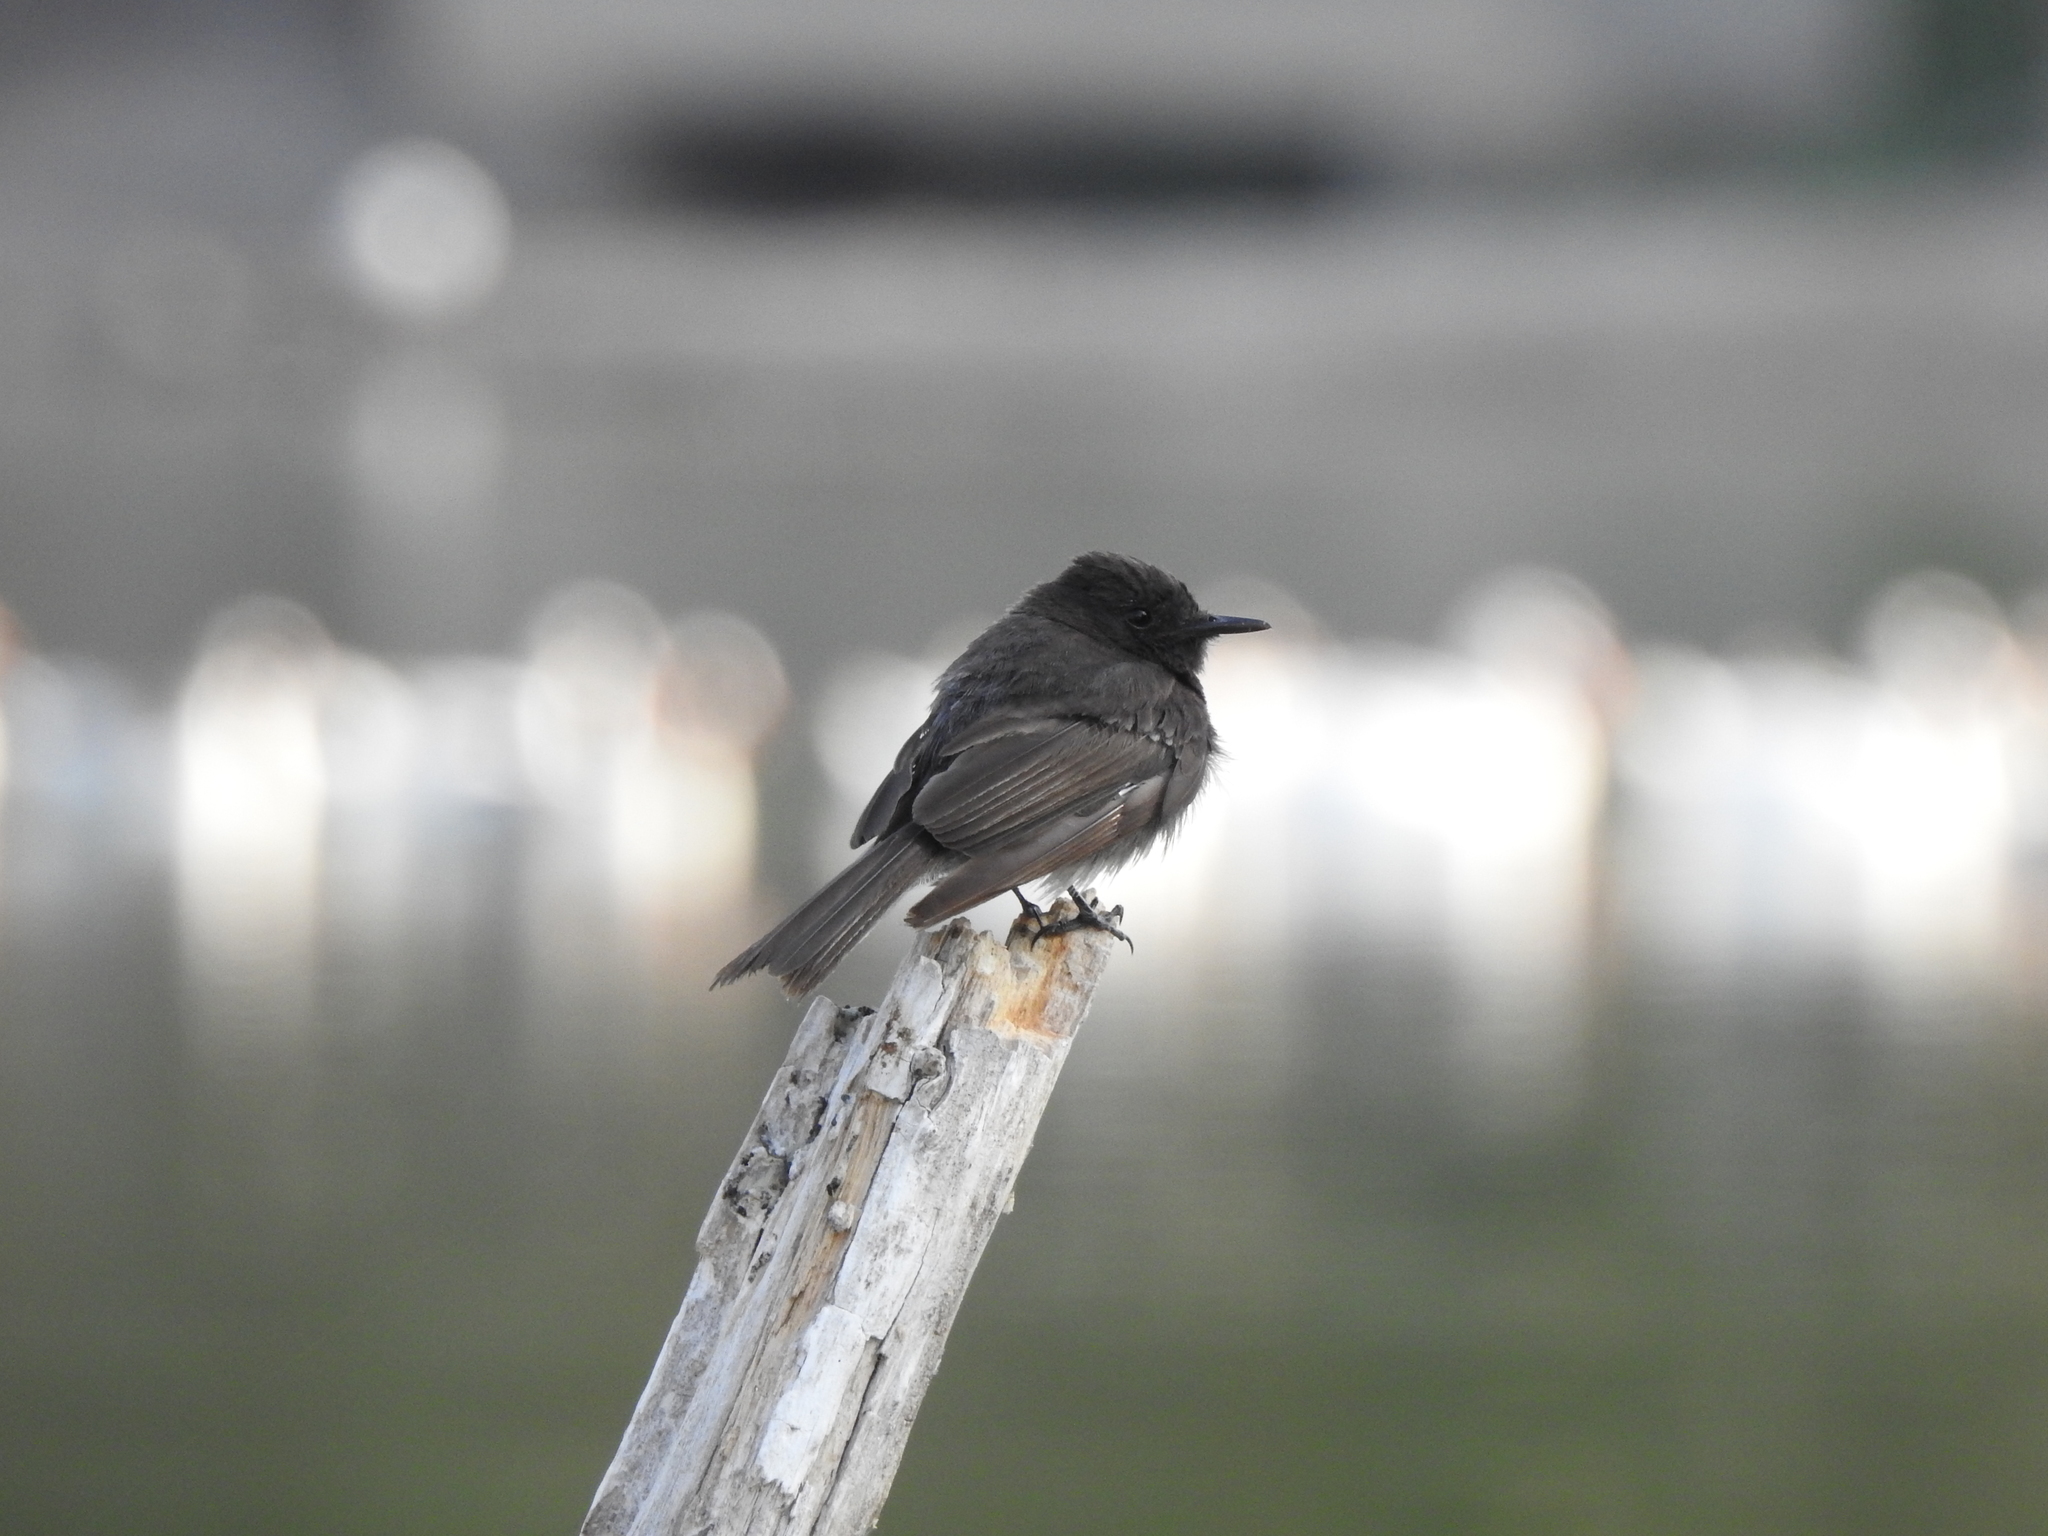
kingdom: Animalia
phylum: Chordata
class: Aves
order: Passeriformes
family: Tyrannidae
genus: Sayornis
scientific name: Sayornis nigricans
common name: Black phoebe
